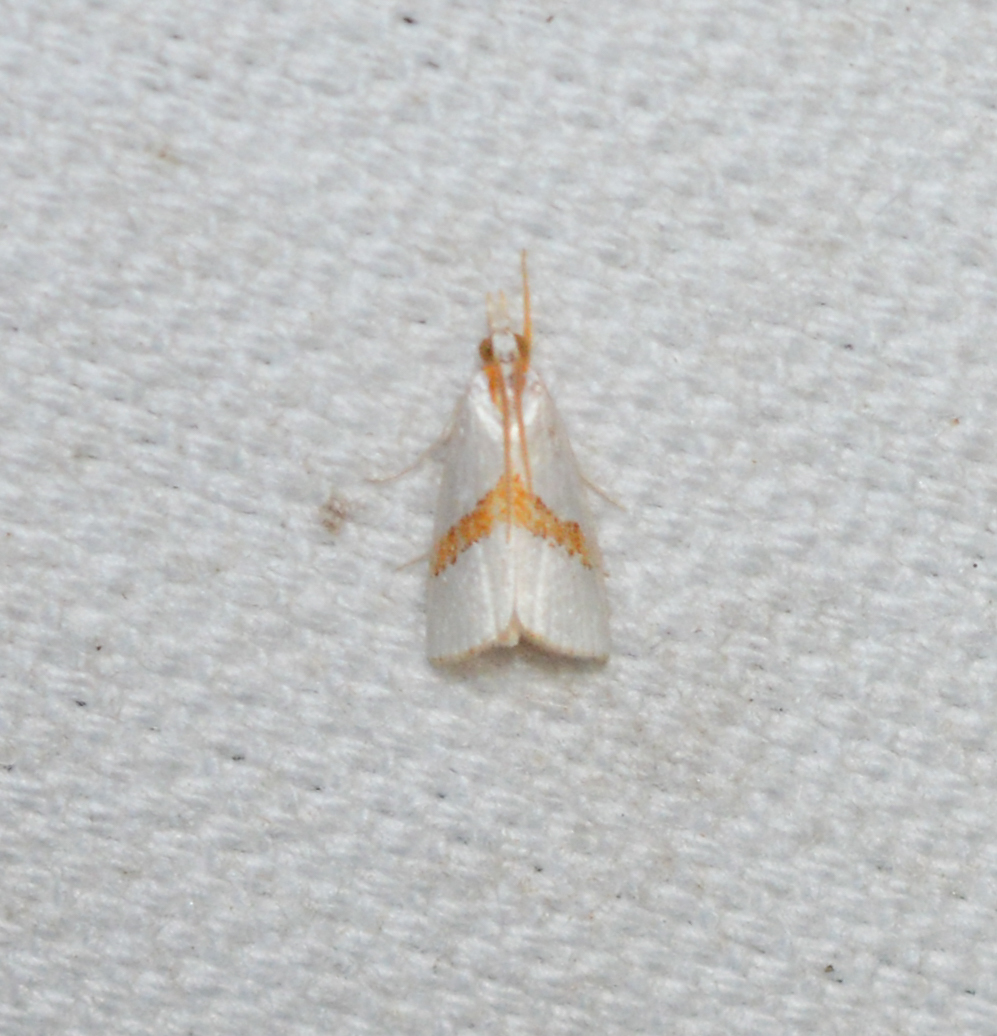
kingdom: Animalia
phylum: Arthropoda
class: Insecta
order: Lepidoptera
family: Crambidae
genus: Vaxi
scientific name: Vaxi critica
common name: Straight-lined vaxi moth
